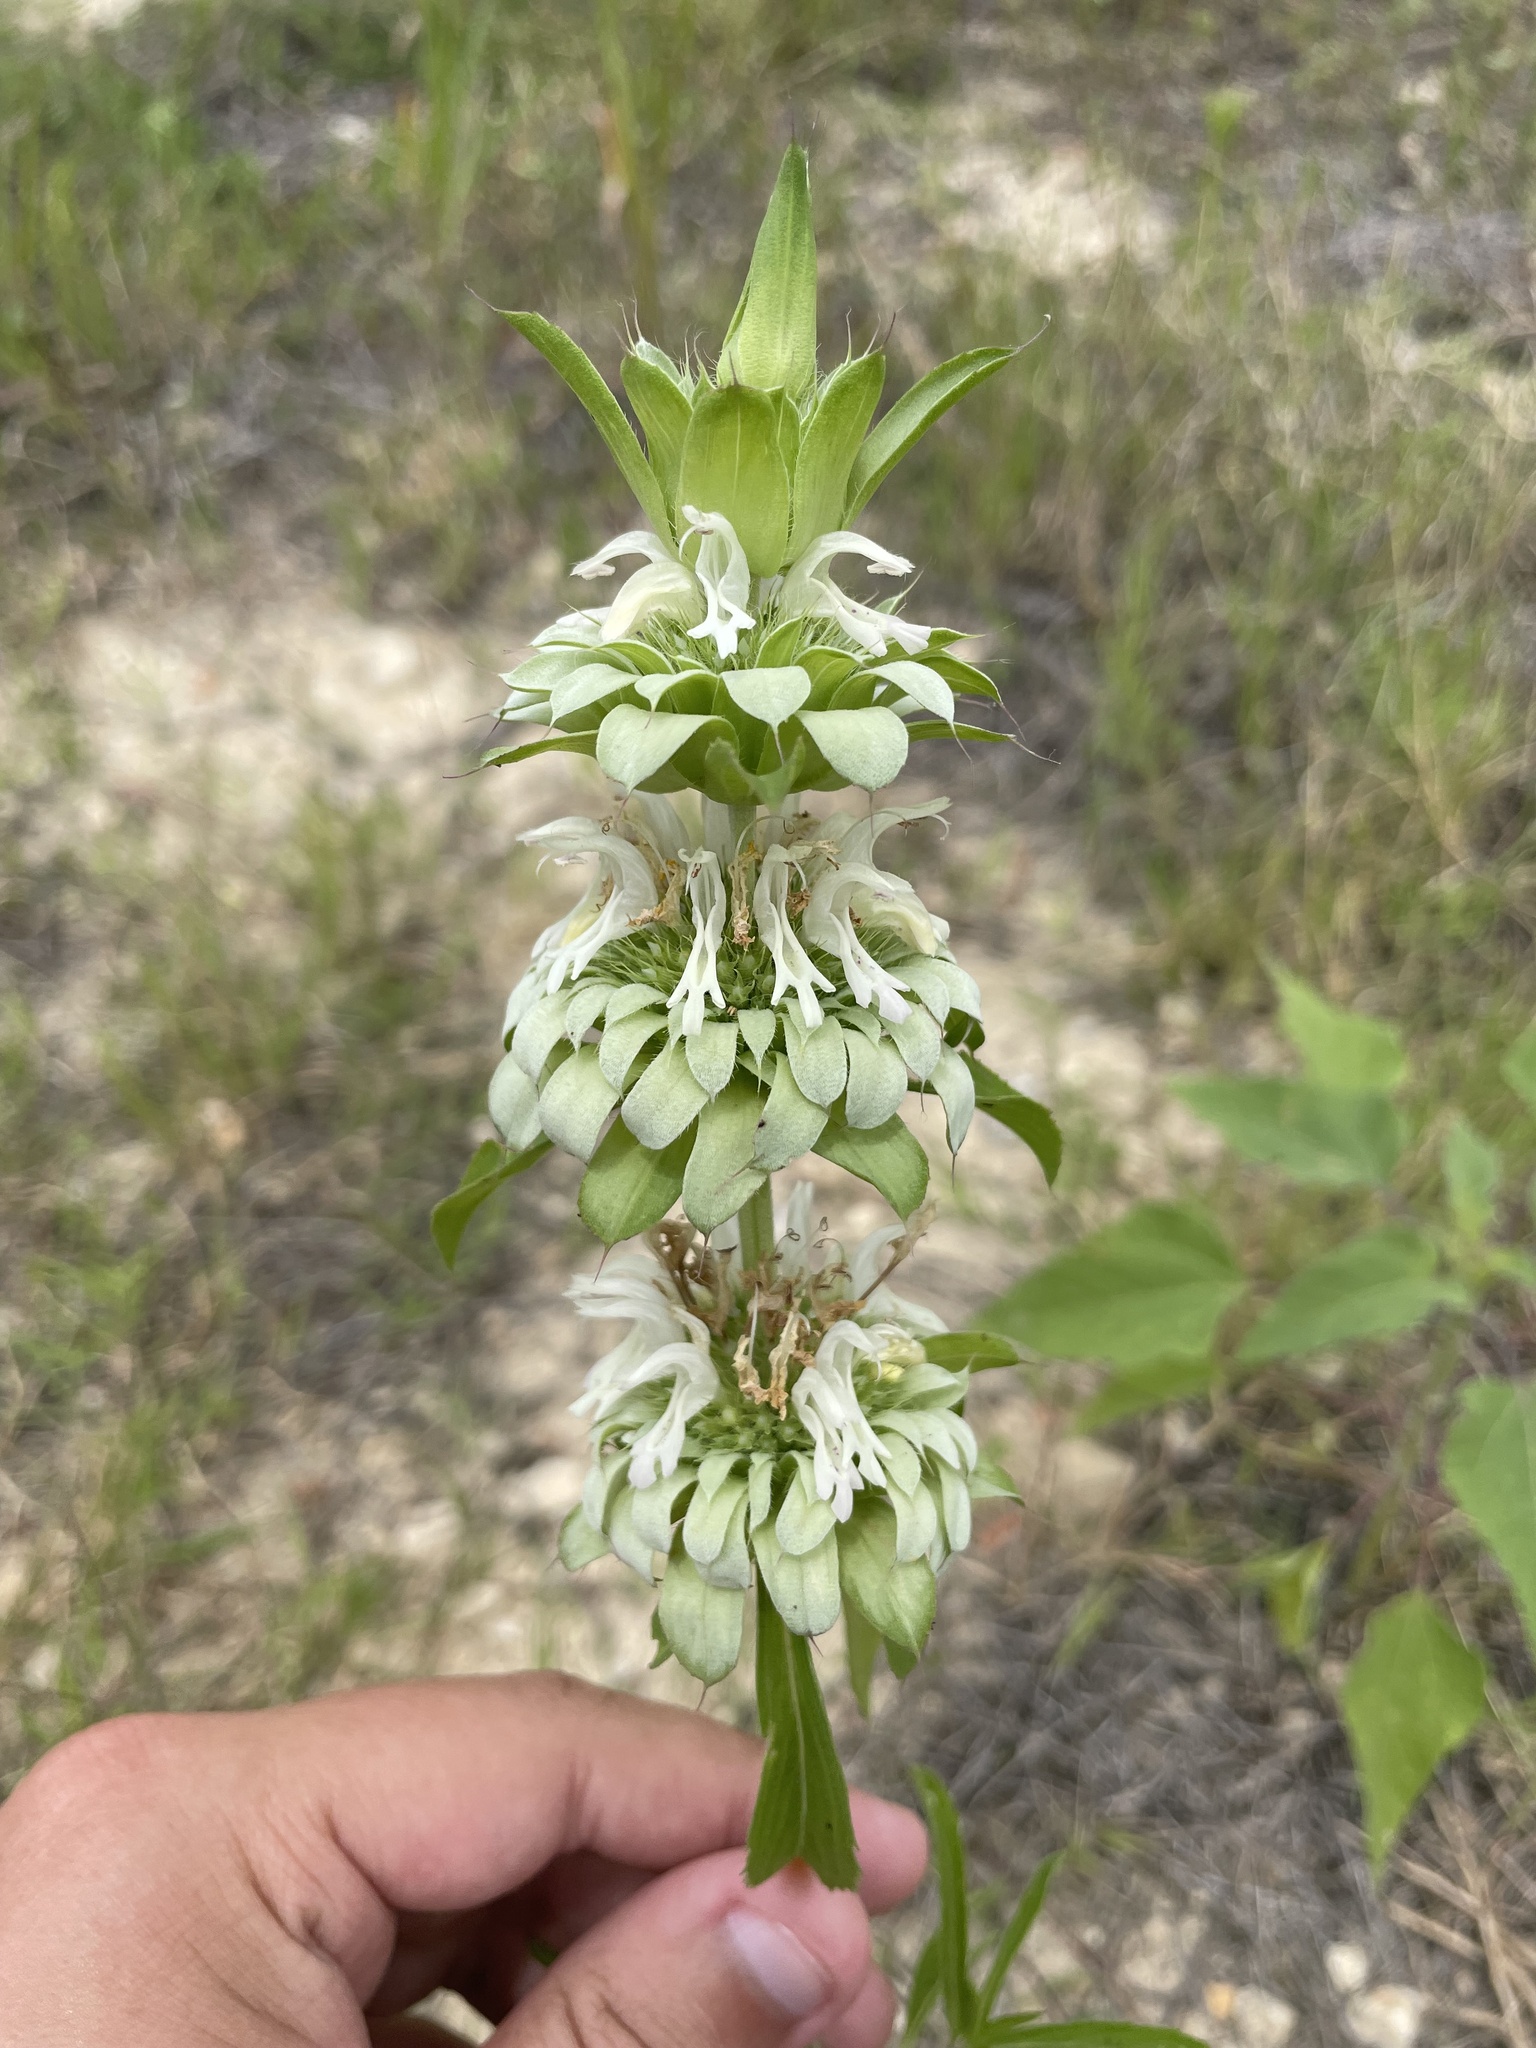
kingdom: Plantae
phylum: Tracheophyta
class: Magnoliopsida
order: Lamiales
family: Lamiaceae
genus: Monarda
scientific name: Monarda citriodora
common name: Lemon beebalm
